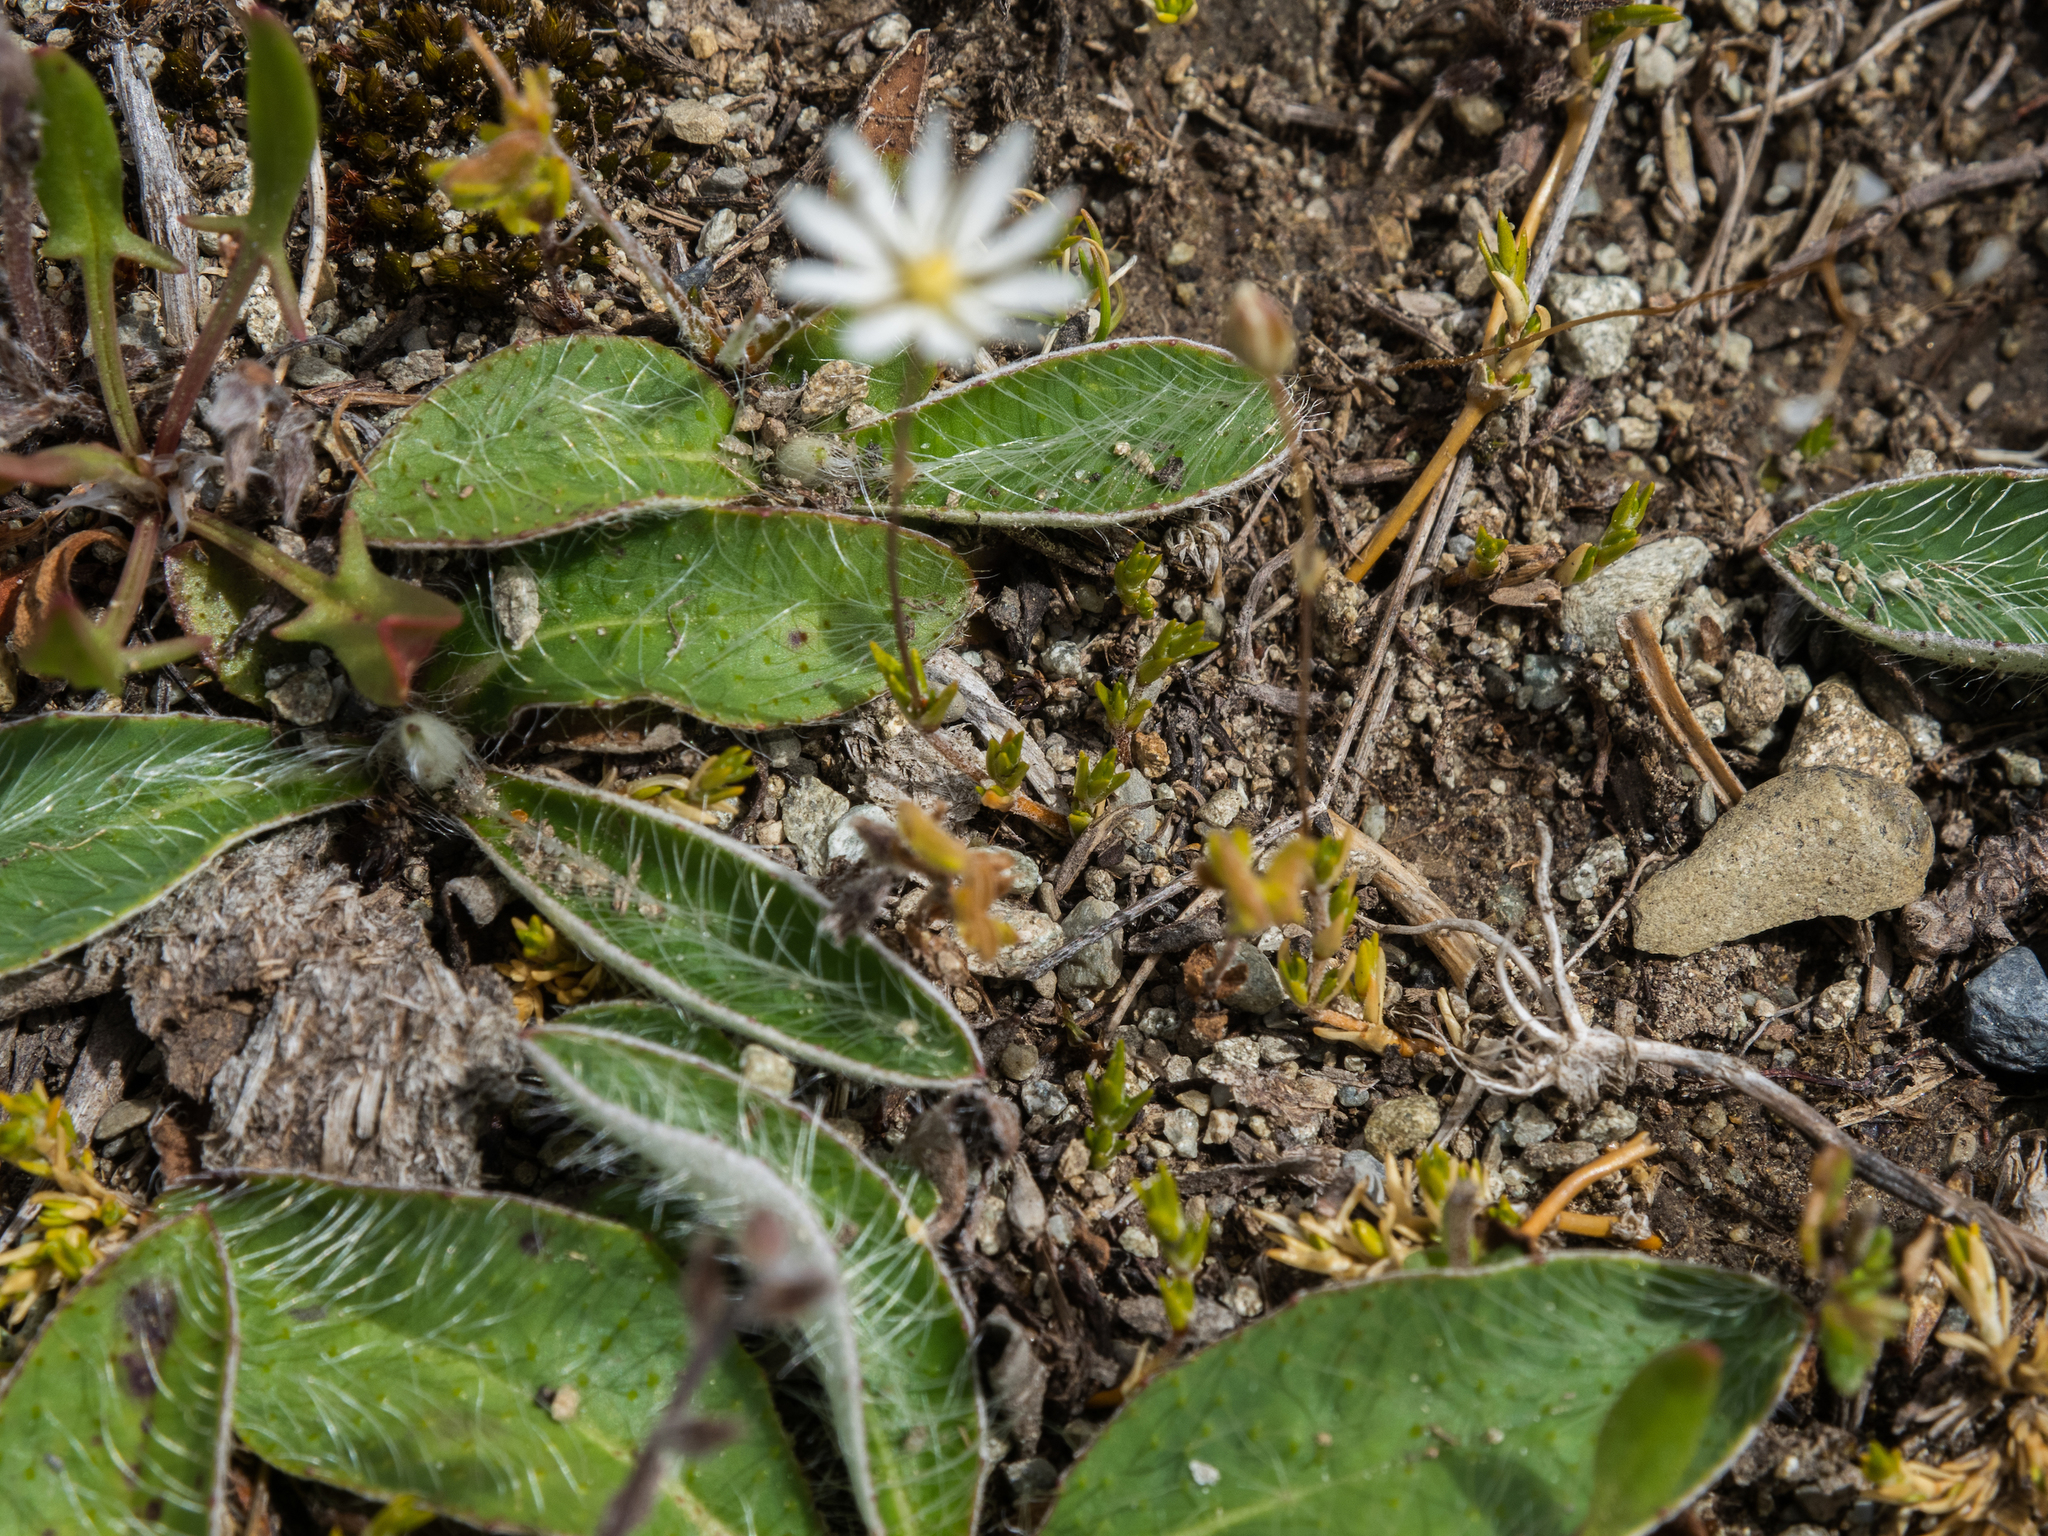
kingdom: Plantae
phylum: Tracheophyta
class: Magnoliopsida
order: Caryophyllales
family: Caryophyllaceae
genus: Stellaria
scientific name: Stellaria gracilenta
